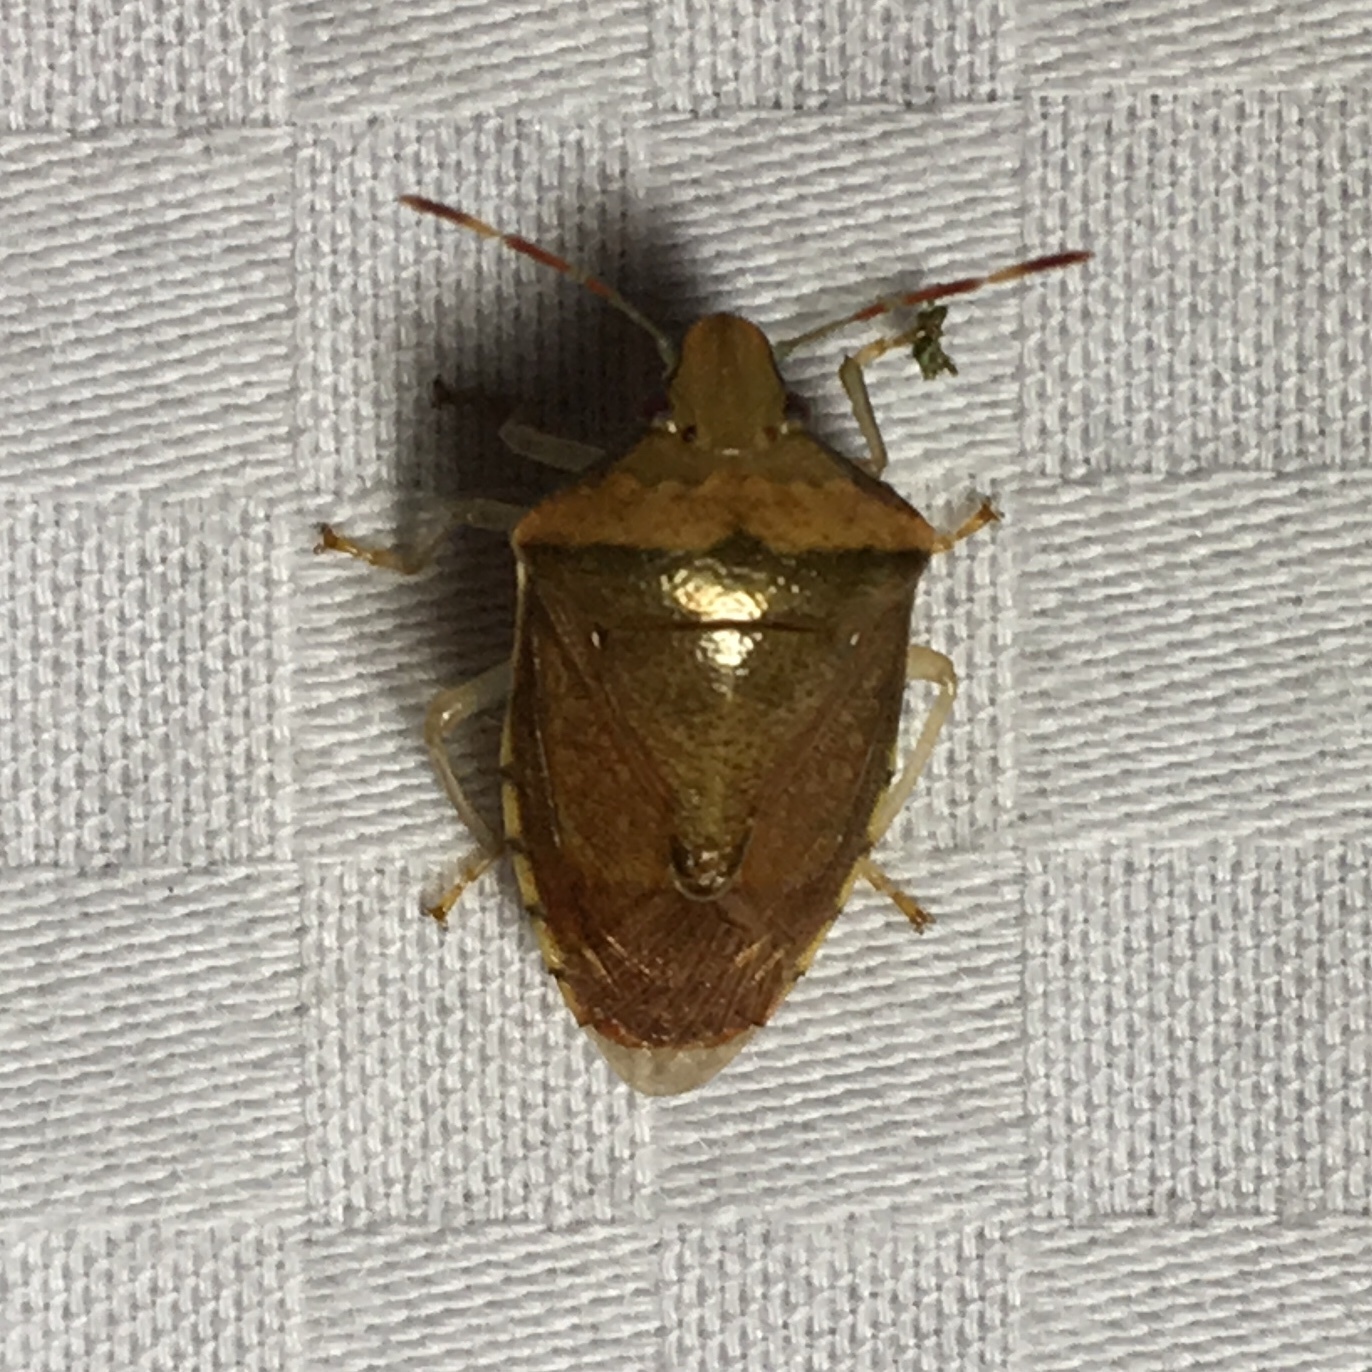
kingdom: Animalia
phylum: Arthropoda
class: Insecta
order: Hemiptera
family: Pentatomidae
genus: Banasa
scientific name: Banasa calva
